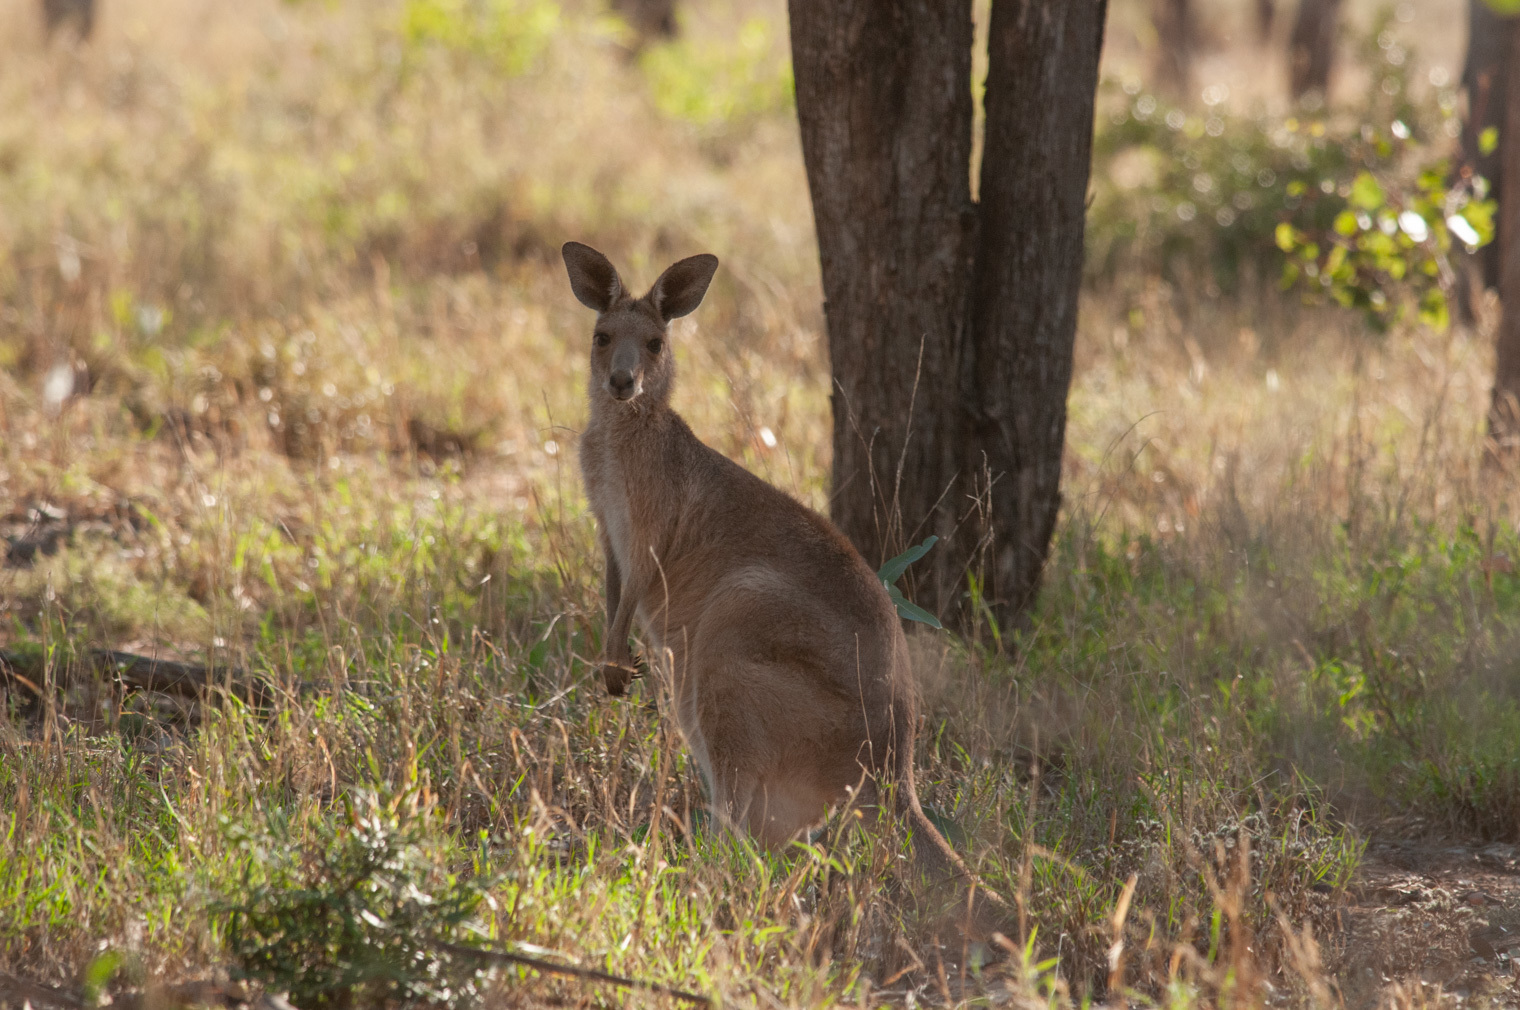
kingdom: Animalia
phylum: Chordata
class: Mammalia
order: Diprotodontia
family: Macropodidae
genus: Macropus
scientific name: Macropus giganteus
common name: Eastern grey kangaroo
